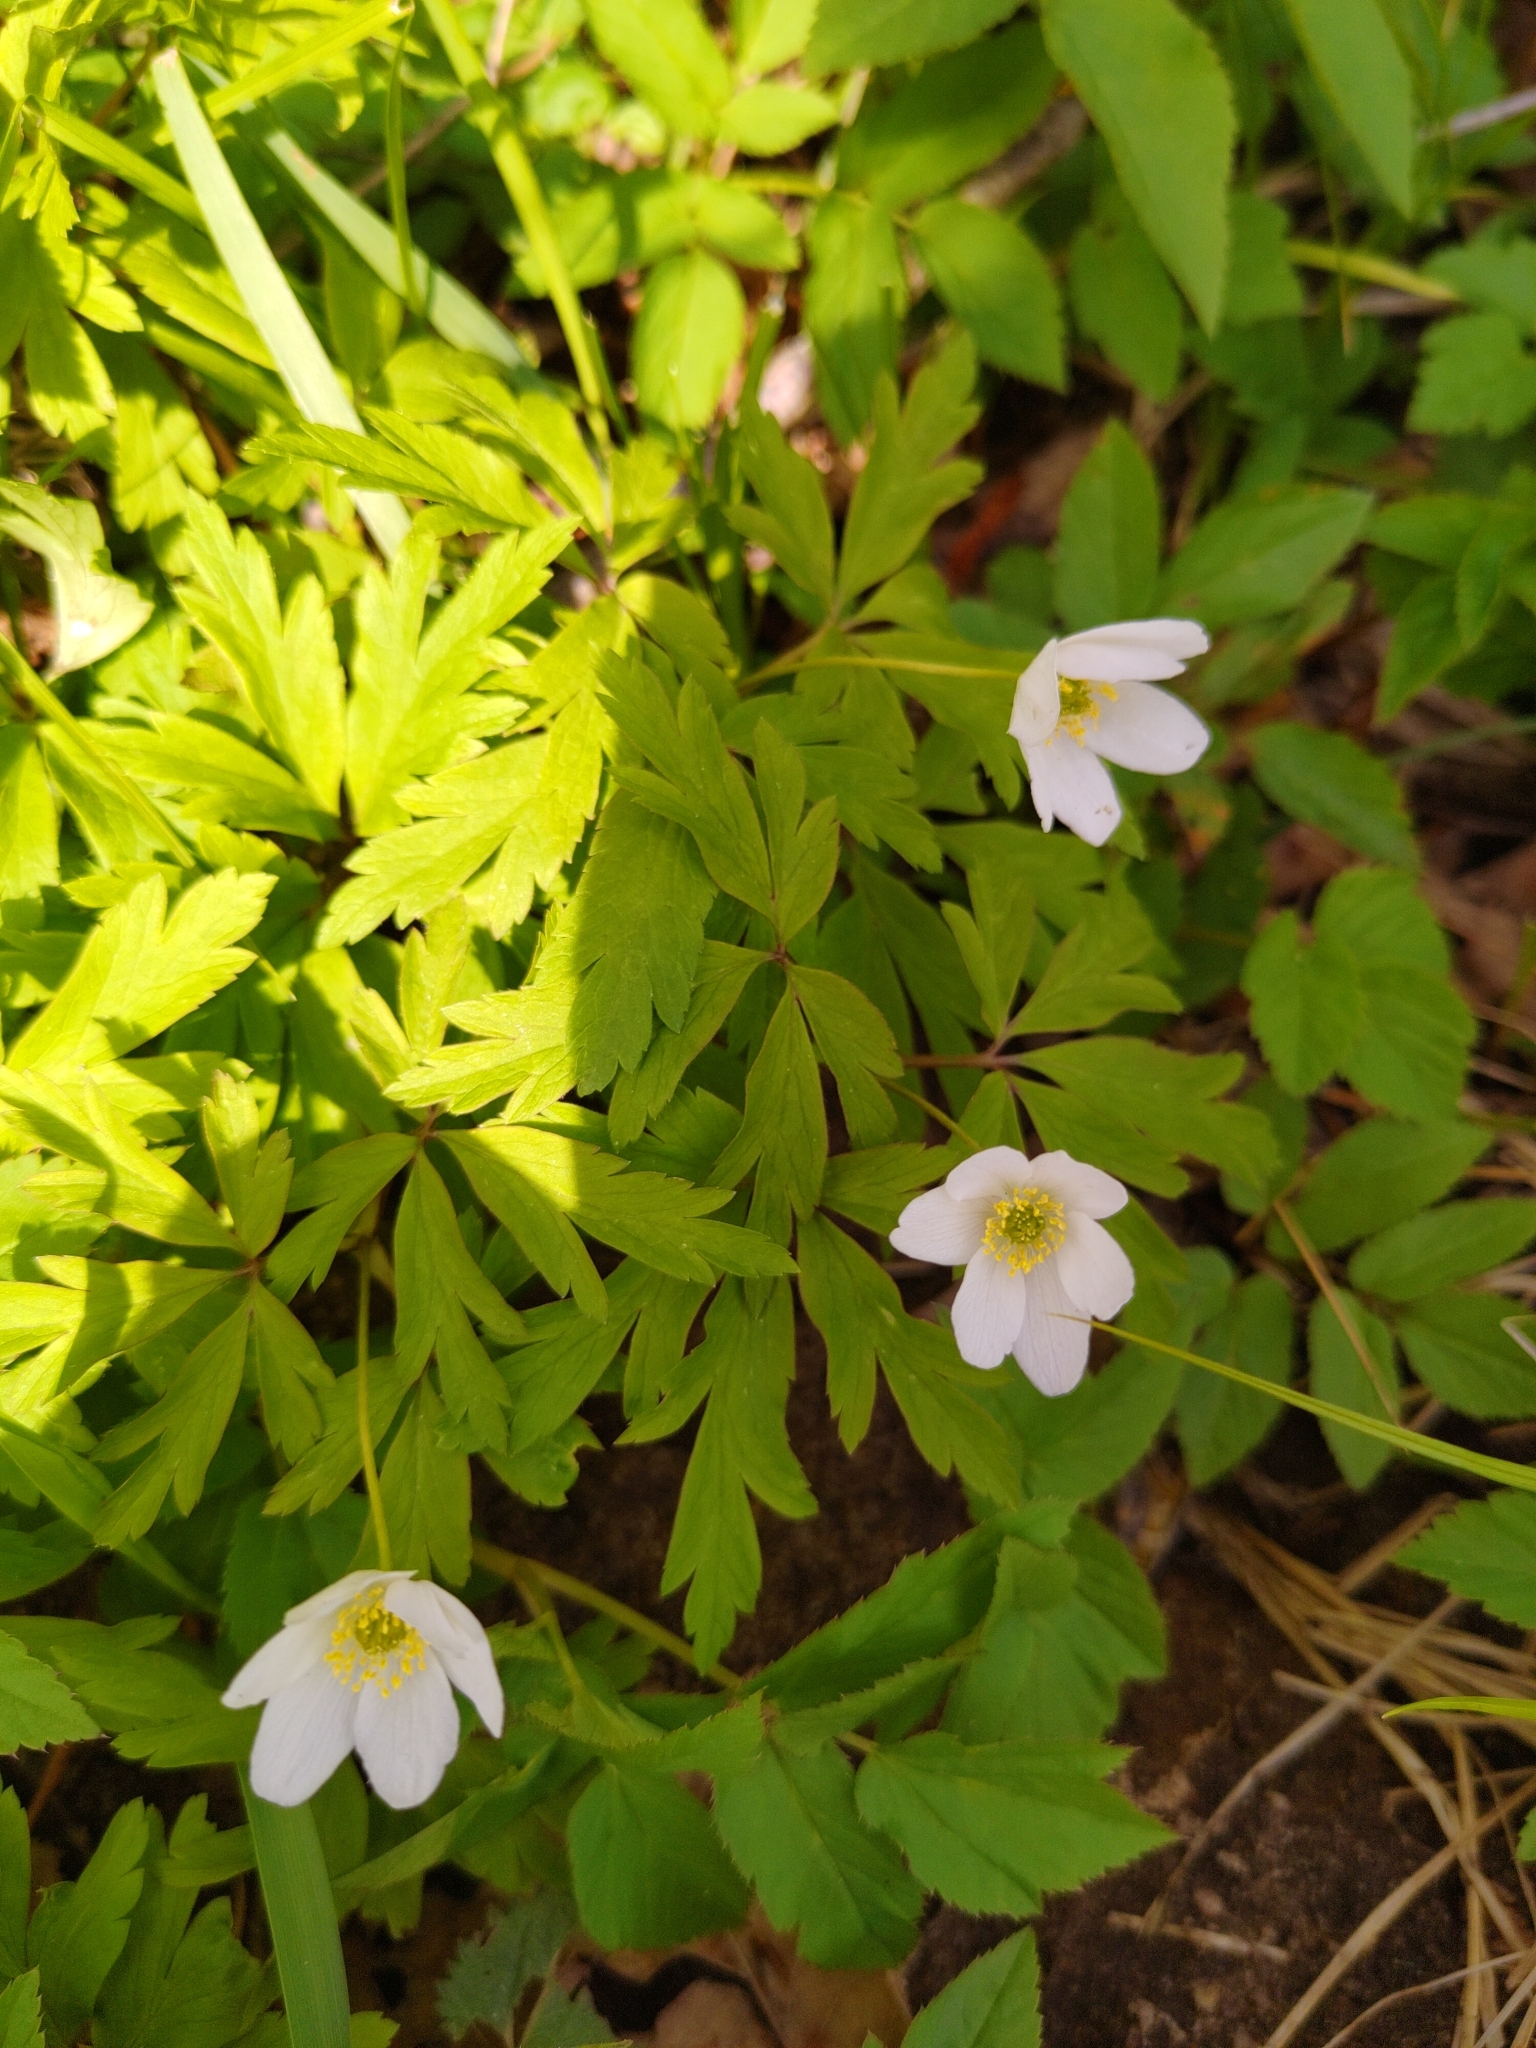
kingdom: Plantae
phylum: Tracheophyta
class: Magnoliopsida
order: Ranunculales
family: Ranunculaceae
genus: Anemone
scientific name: Anemone nemorosa
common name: Wood anemone
